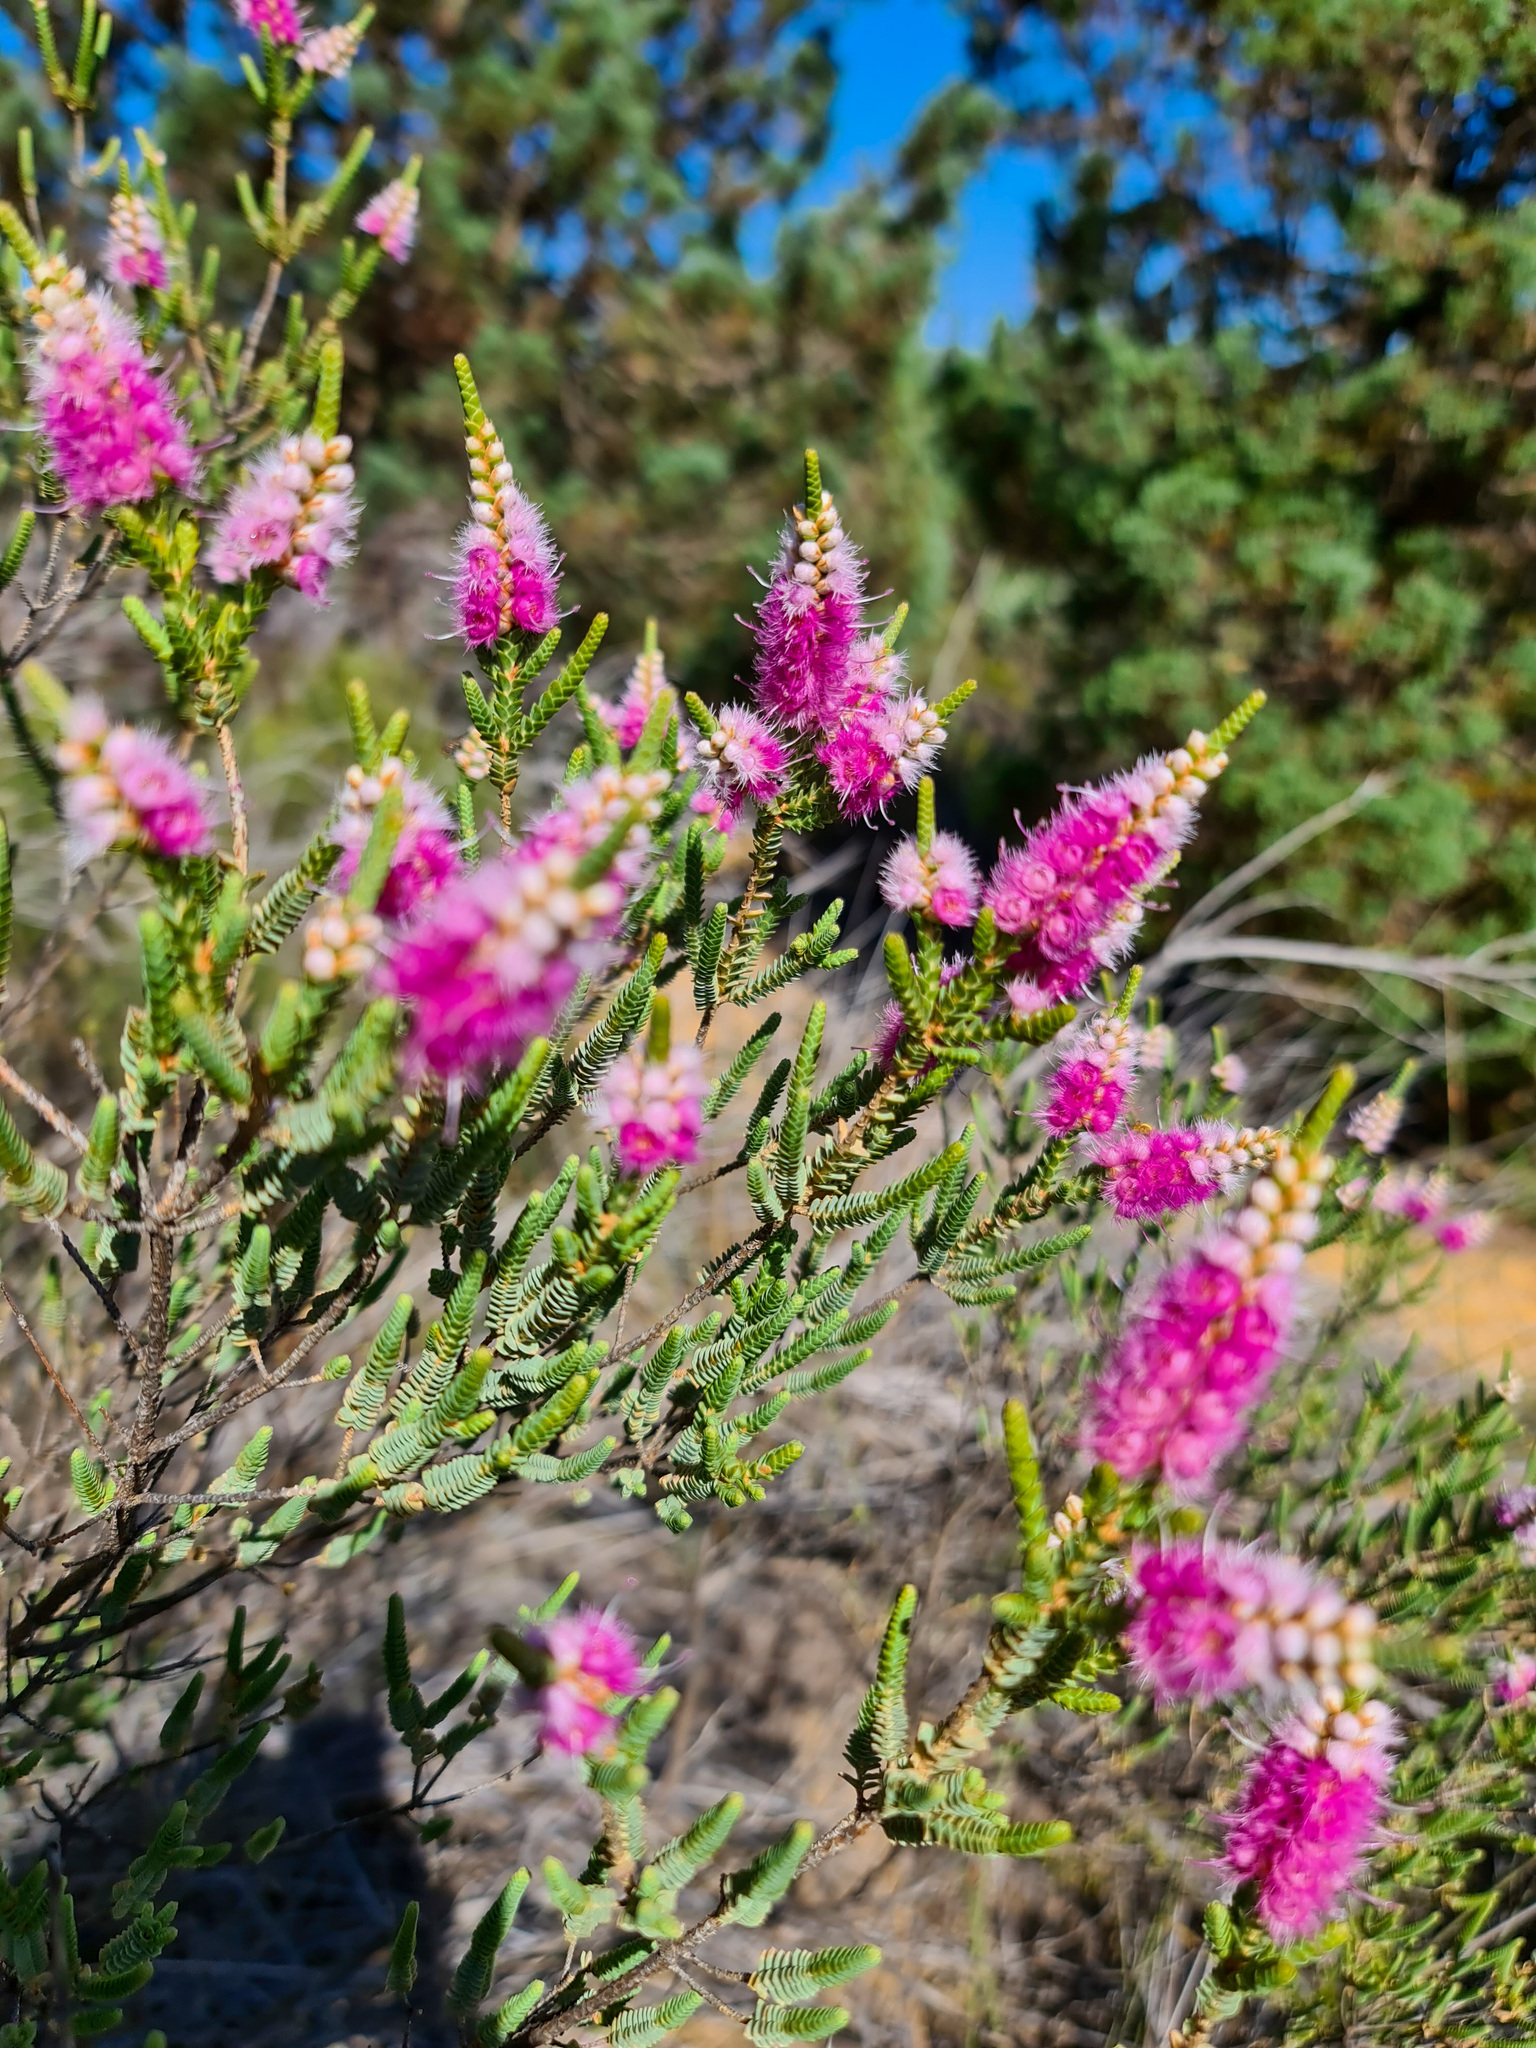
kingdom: Plantae
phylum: Tracheophyta
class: Magnoliopsida
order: Myrtales
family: Myrtaceae
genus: Verticordia
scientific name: Verticordia spicata
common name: Spike feather-flower
